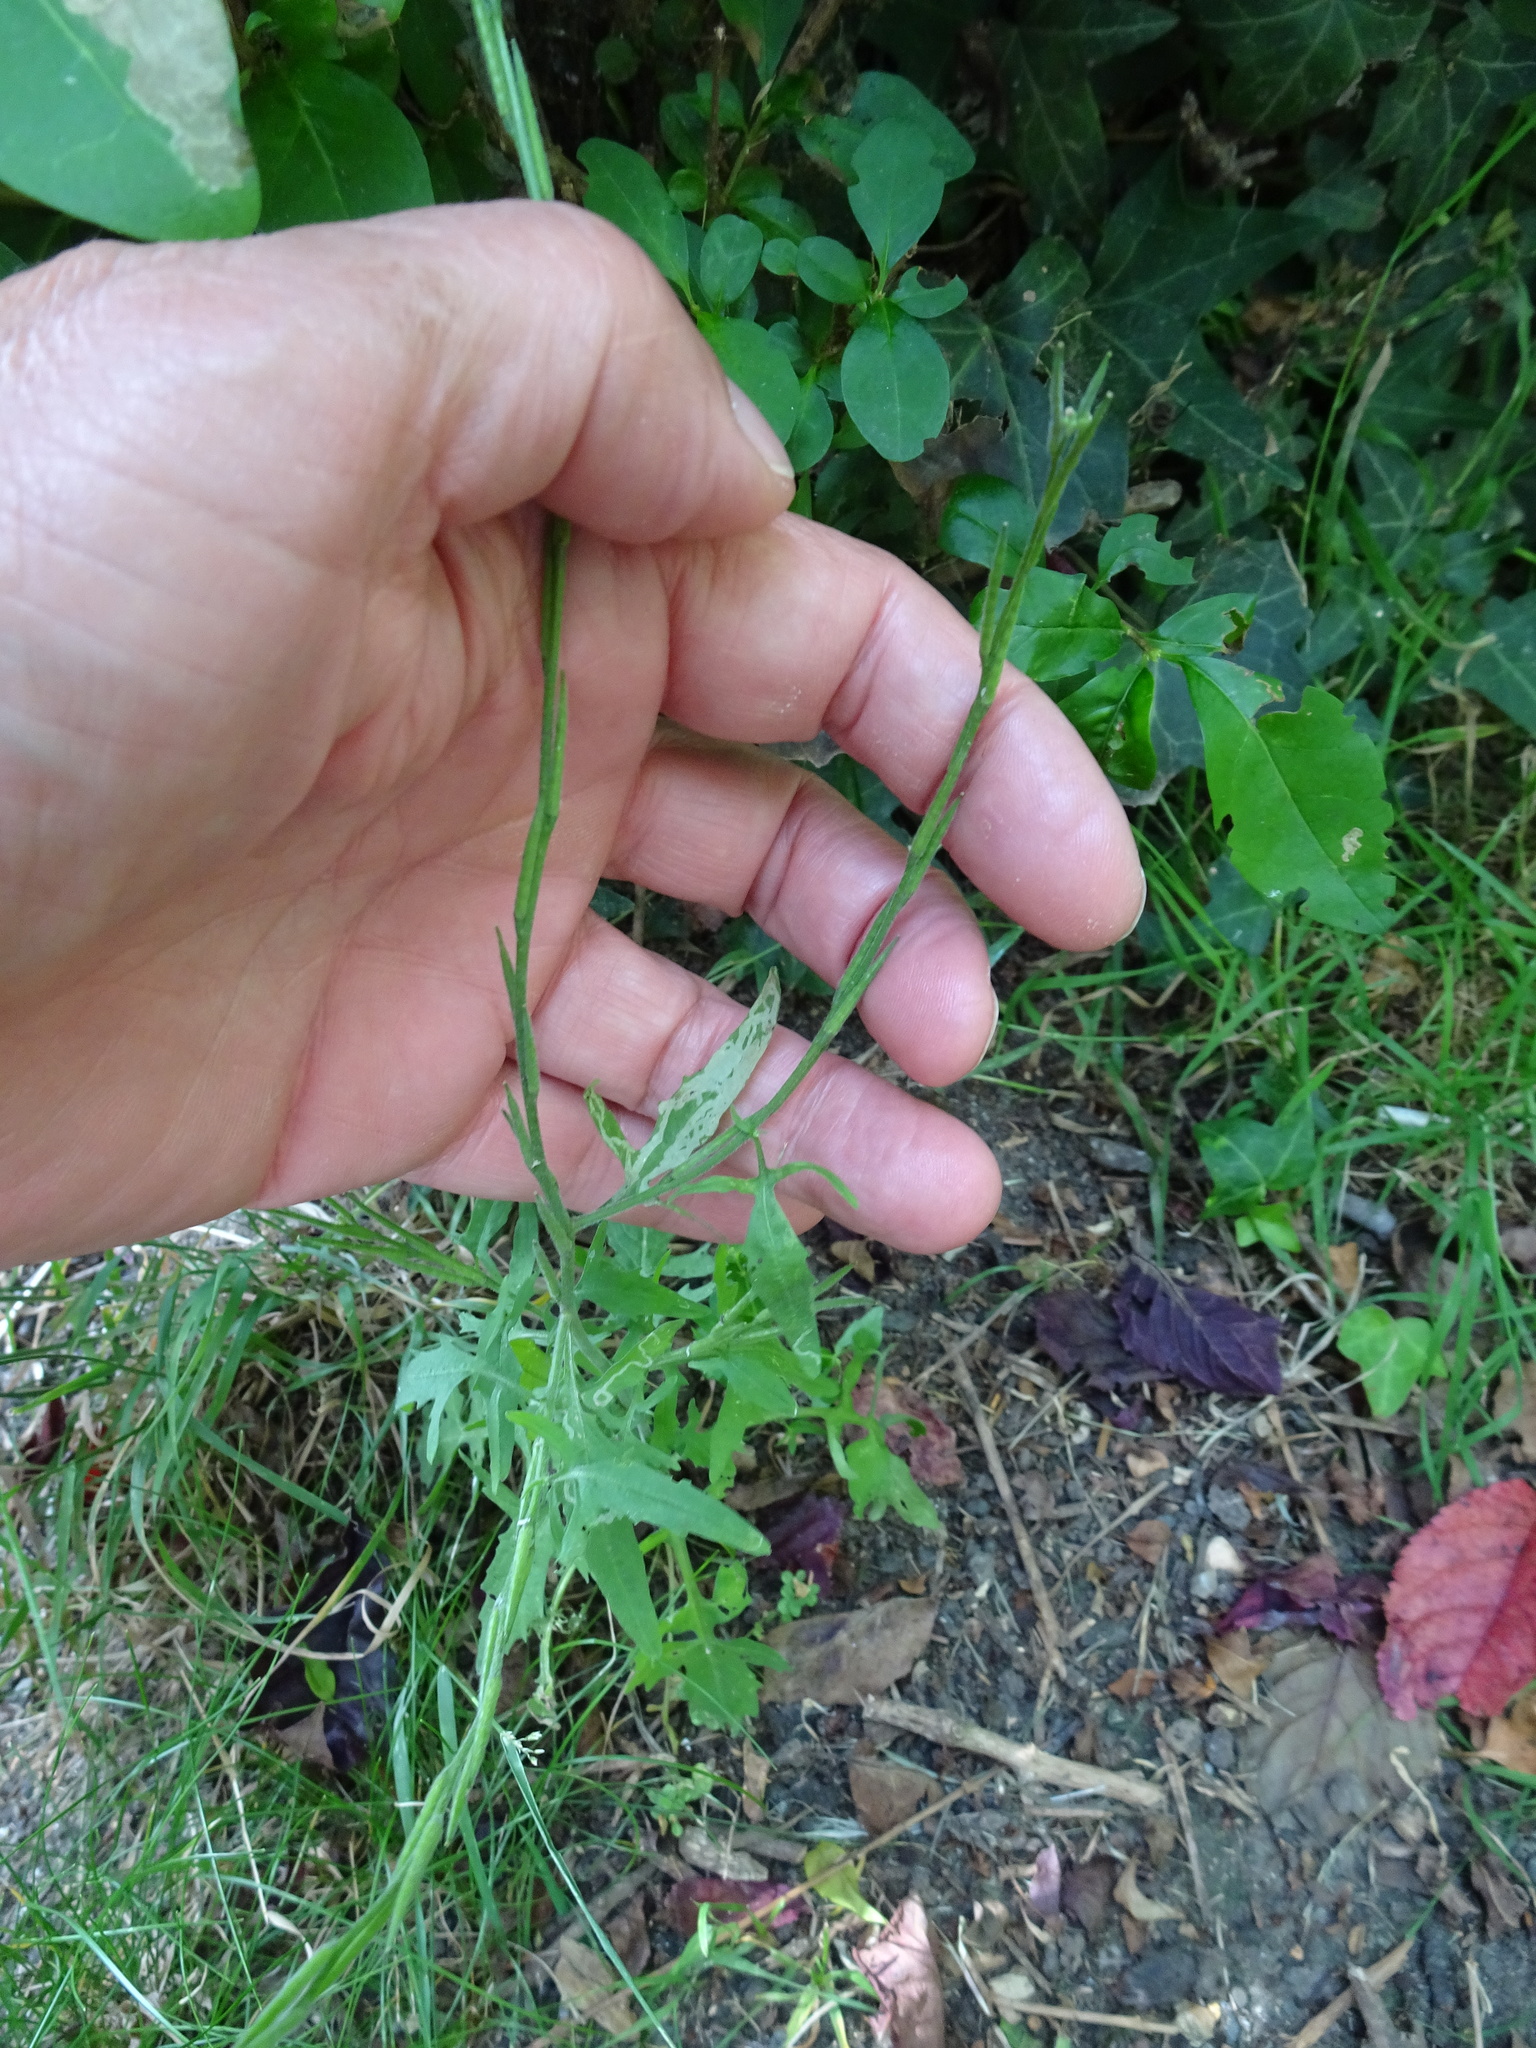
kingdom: Plantae
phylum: Tracheophyta
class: Magnoliopsida
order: Brassicales
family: Brassicaceae
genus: Sisymbrium
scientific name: Sisymbrium officinale
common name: Hedge mustard
